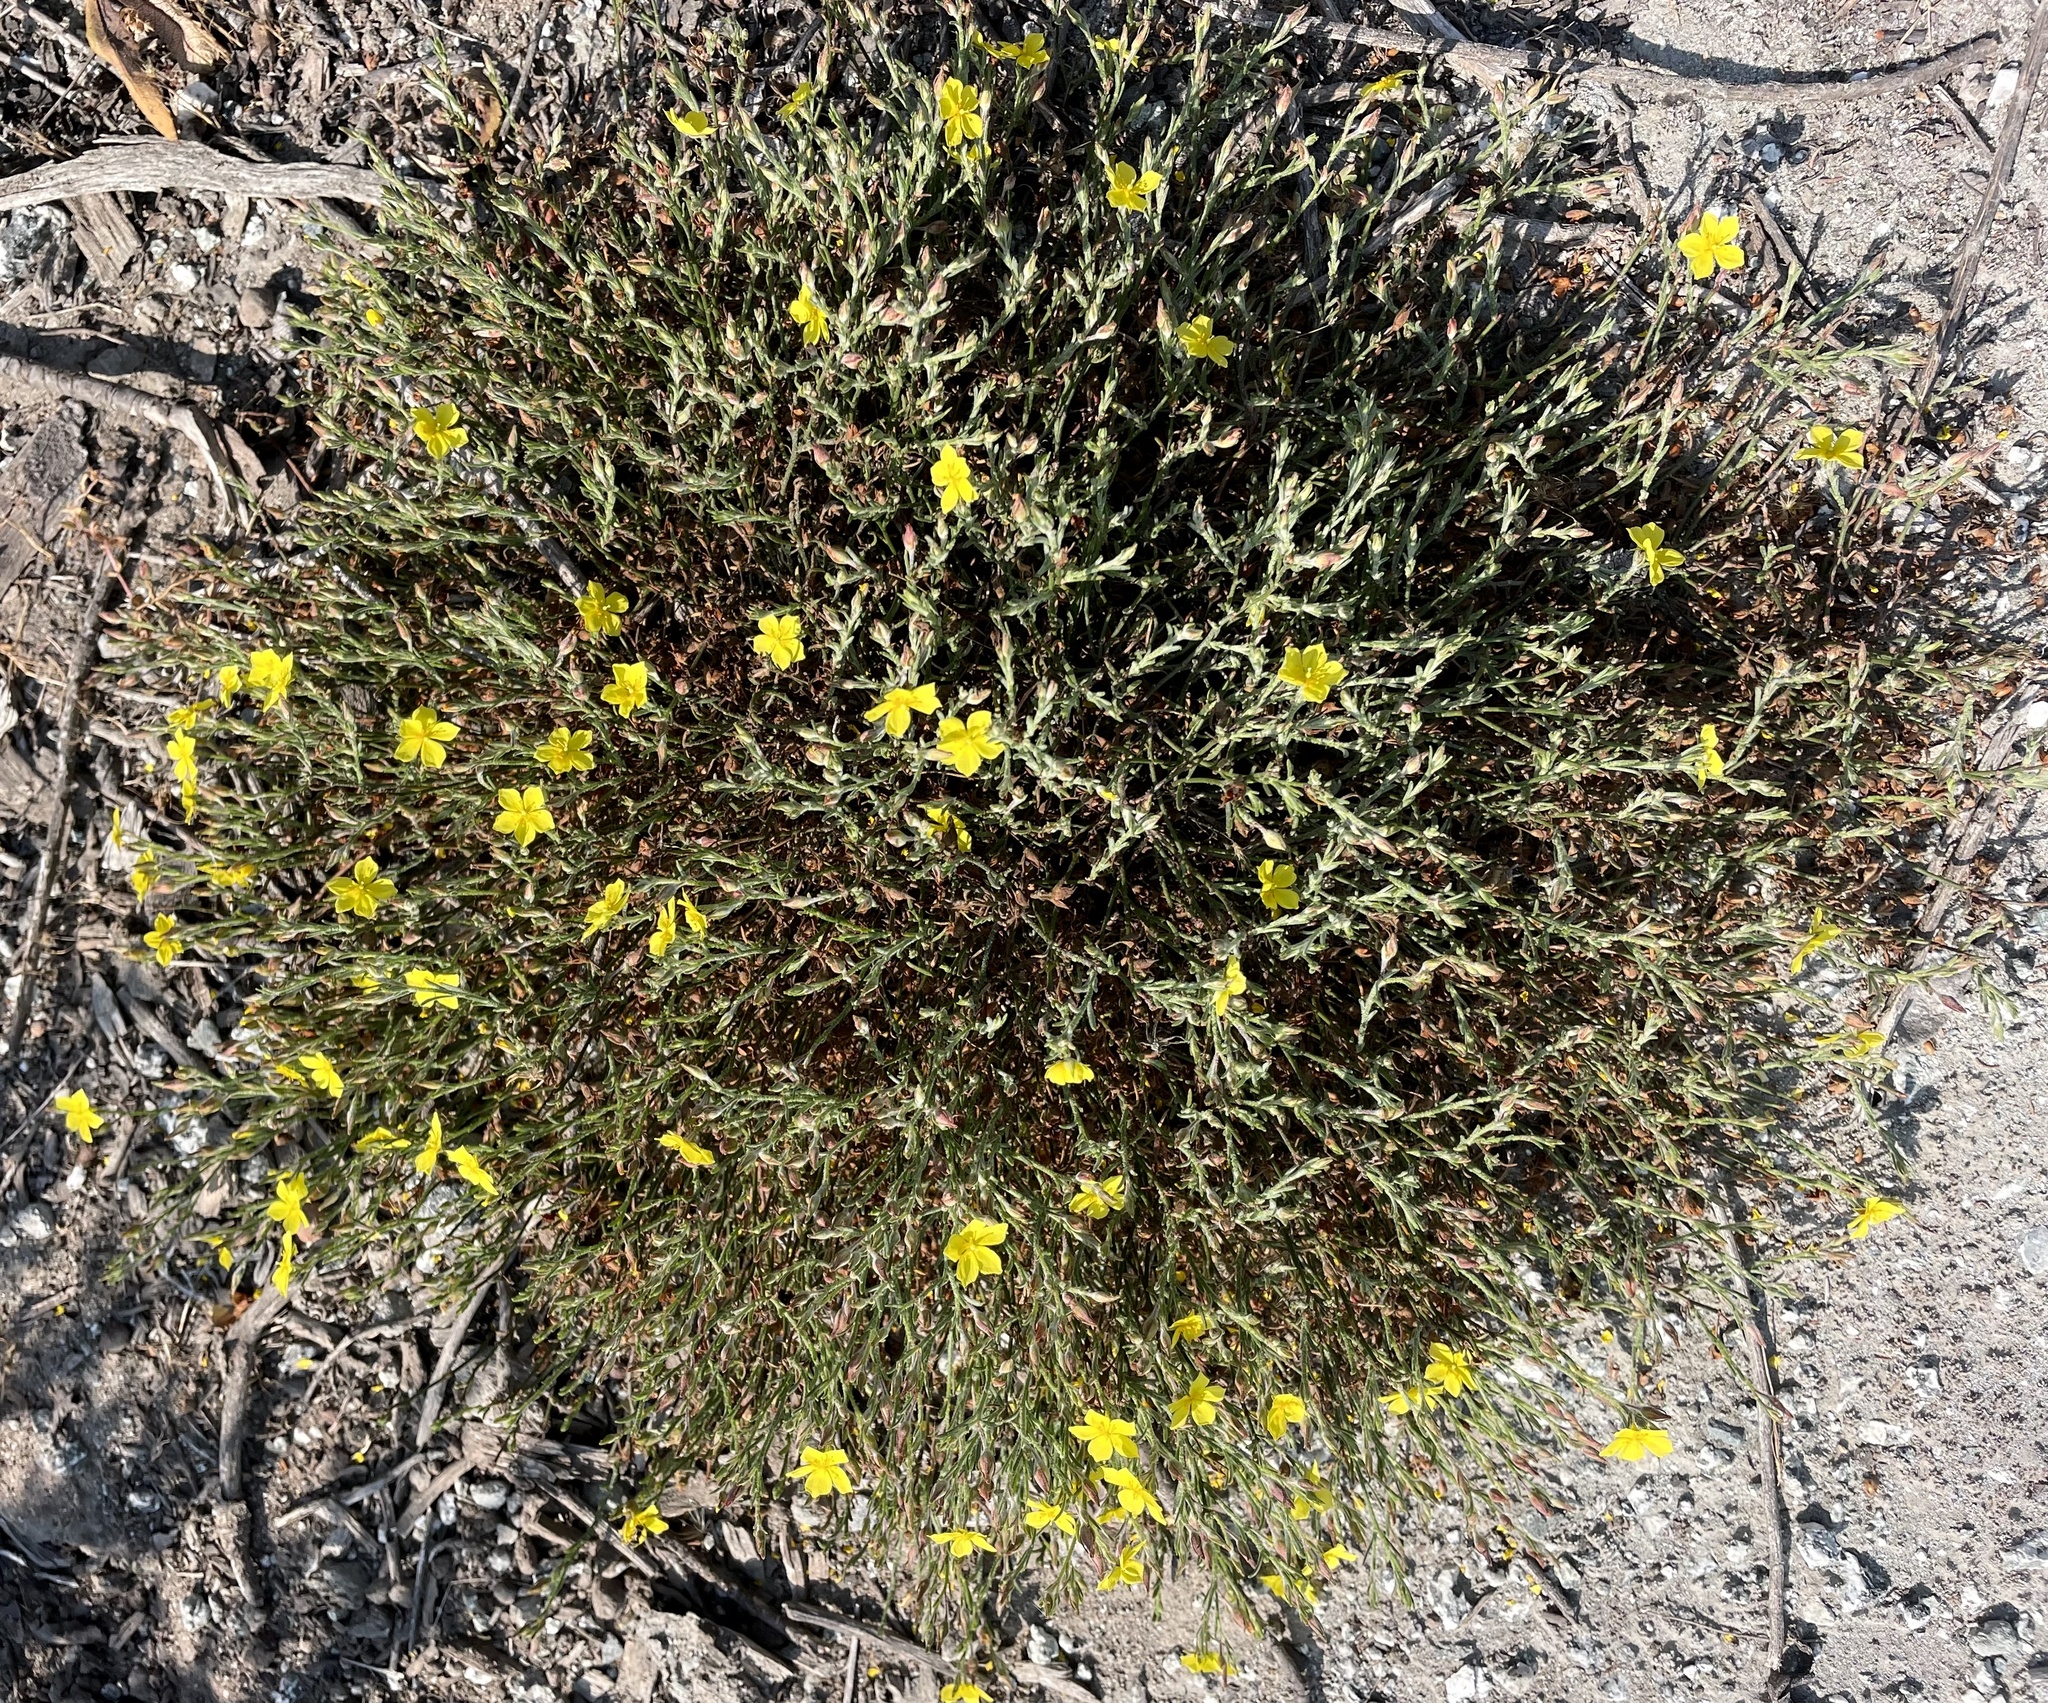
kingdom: Plantae
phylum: Tracheophyta
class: Magnoliopsida
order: Malvales
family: Cistaceae
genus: Crocanthemum
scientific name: Crocanthemum scoparium
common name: Broom-rose
